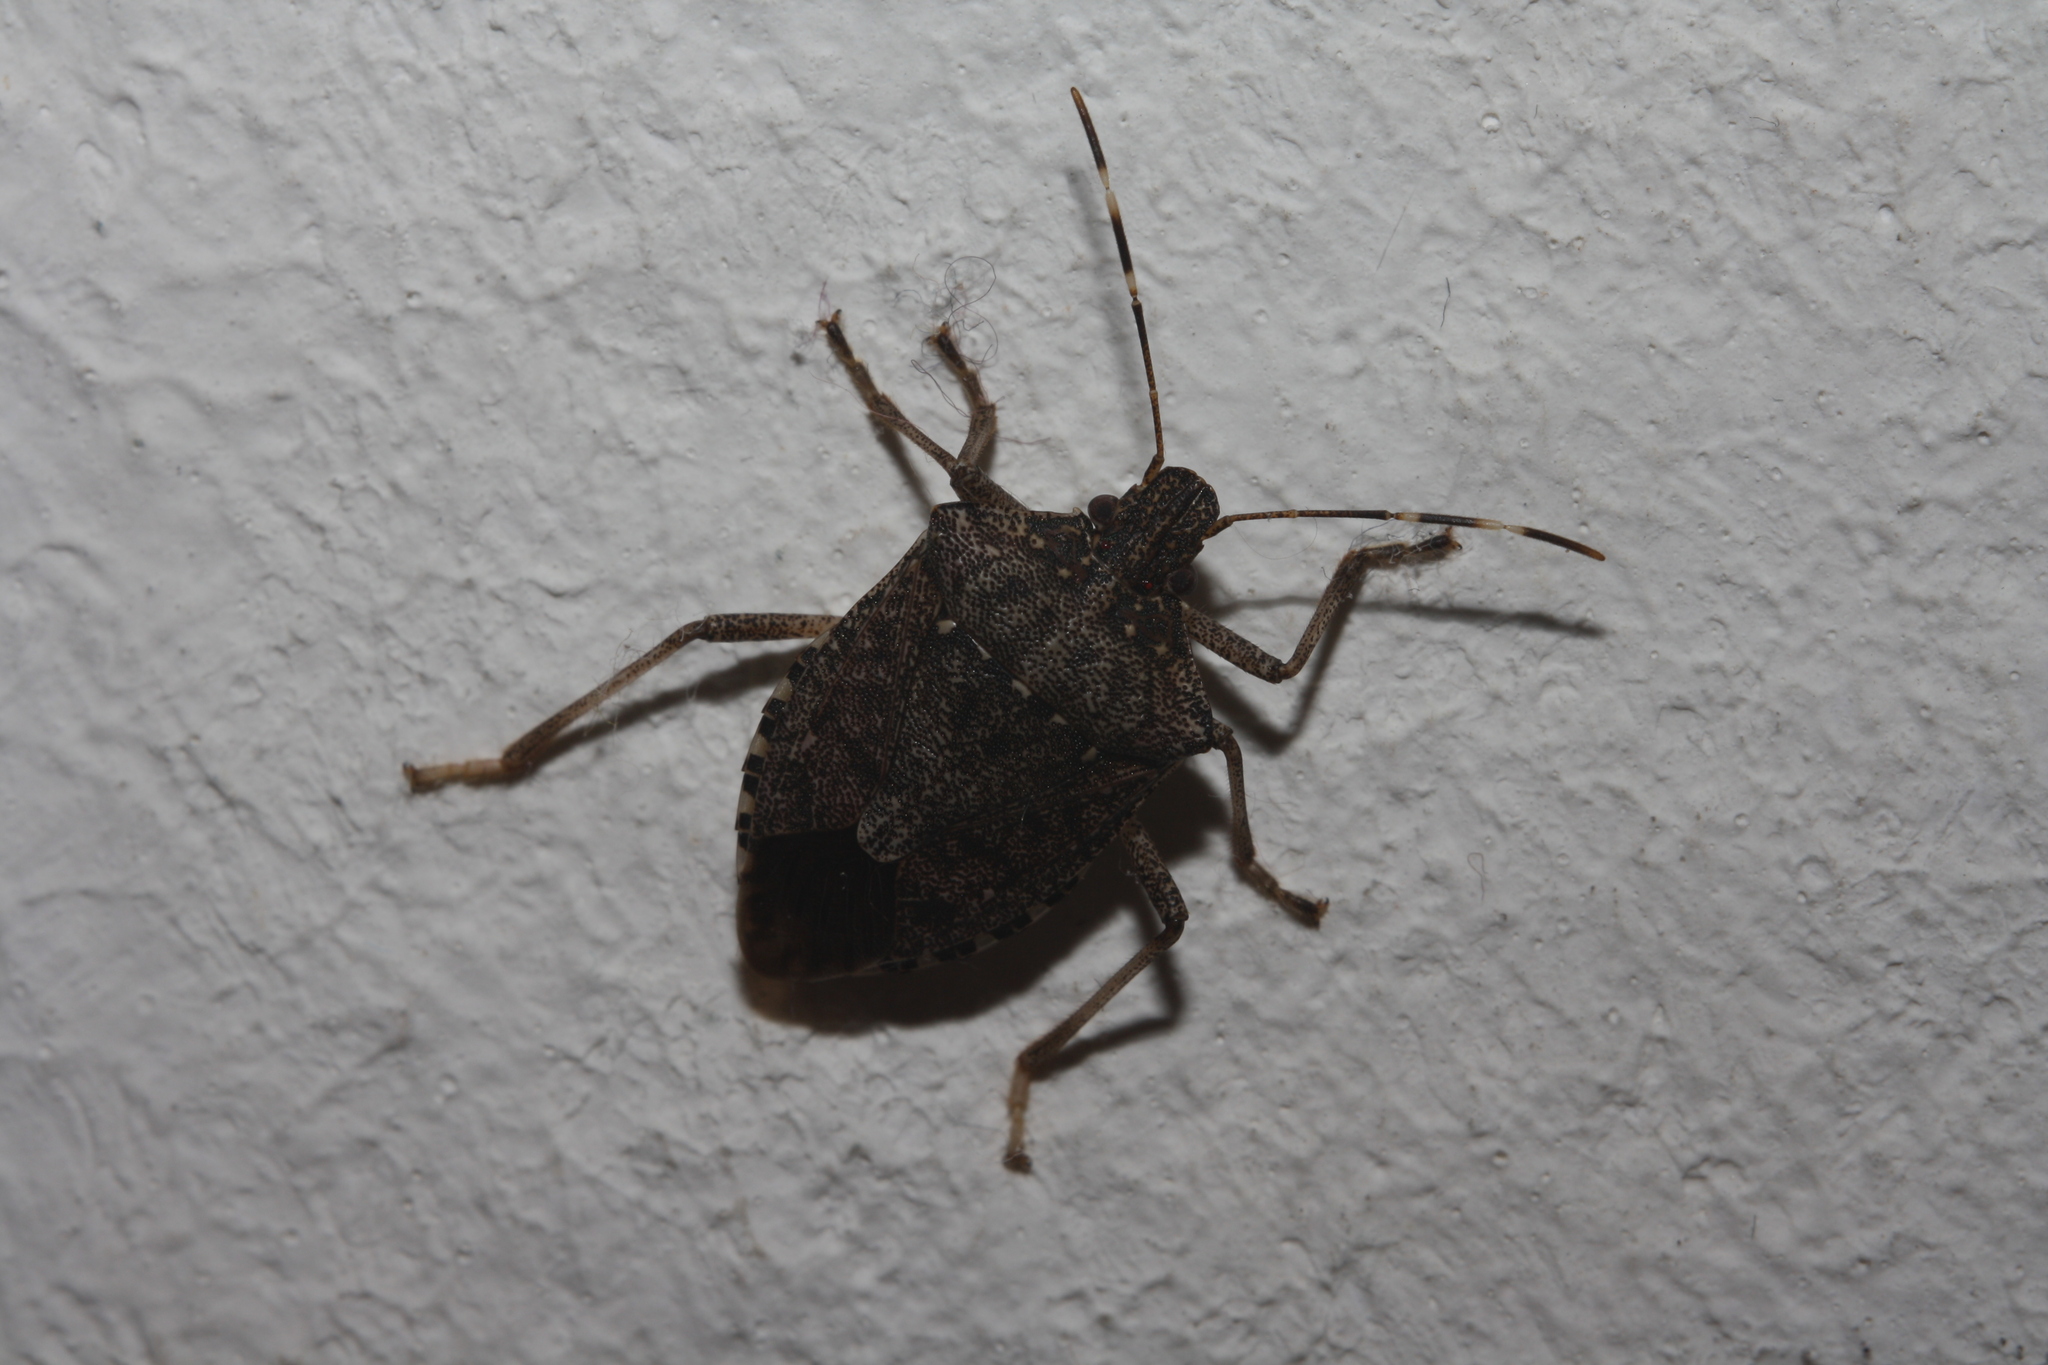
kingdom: Animalia
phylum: Arthropoda
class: Insecta
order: Hemiptera
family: Pentatomidae
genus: Halyomorpha
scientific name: Halyomorpha halys
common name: Brown marmorated stink bug
